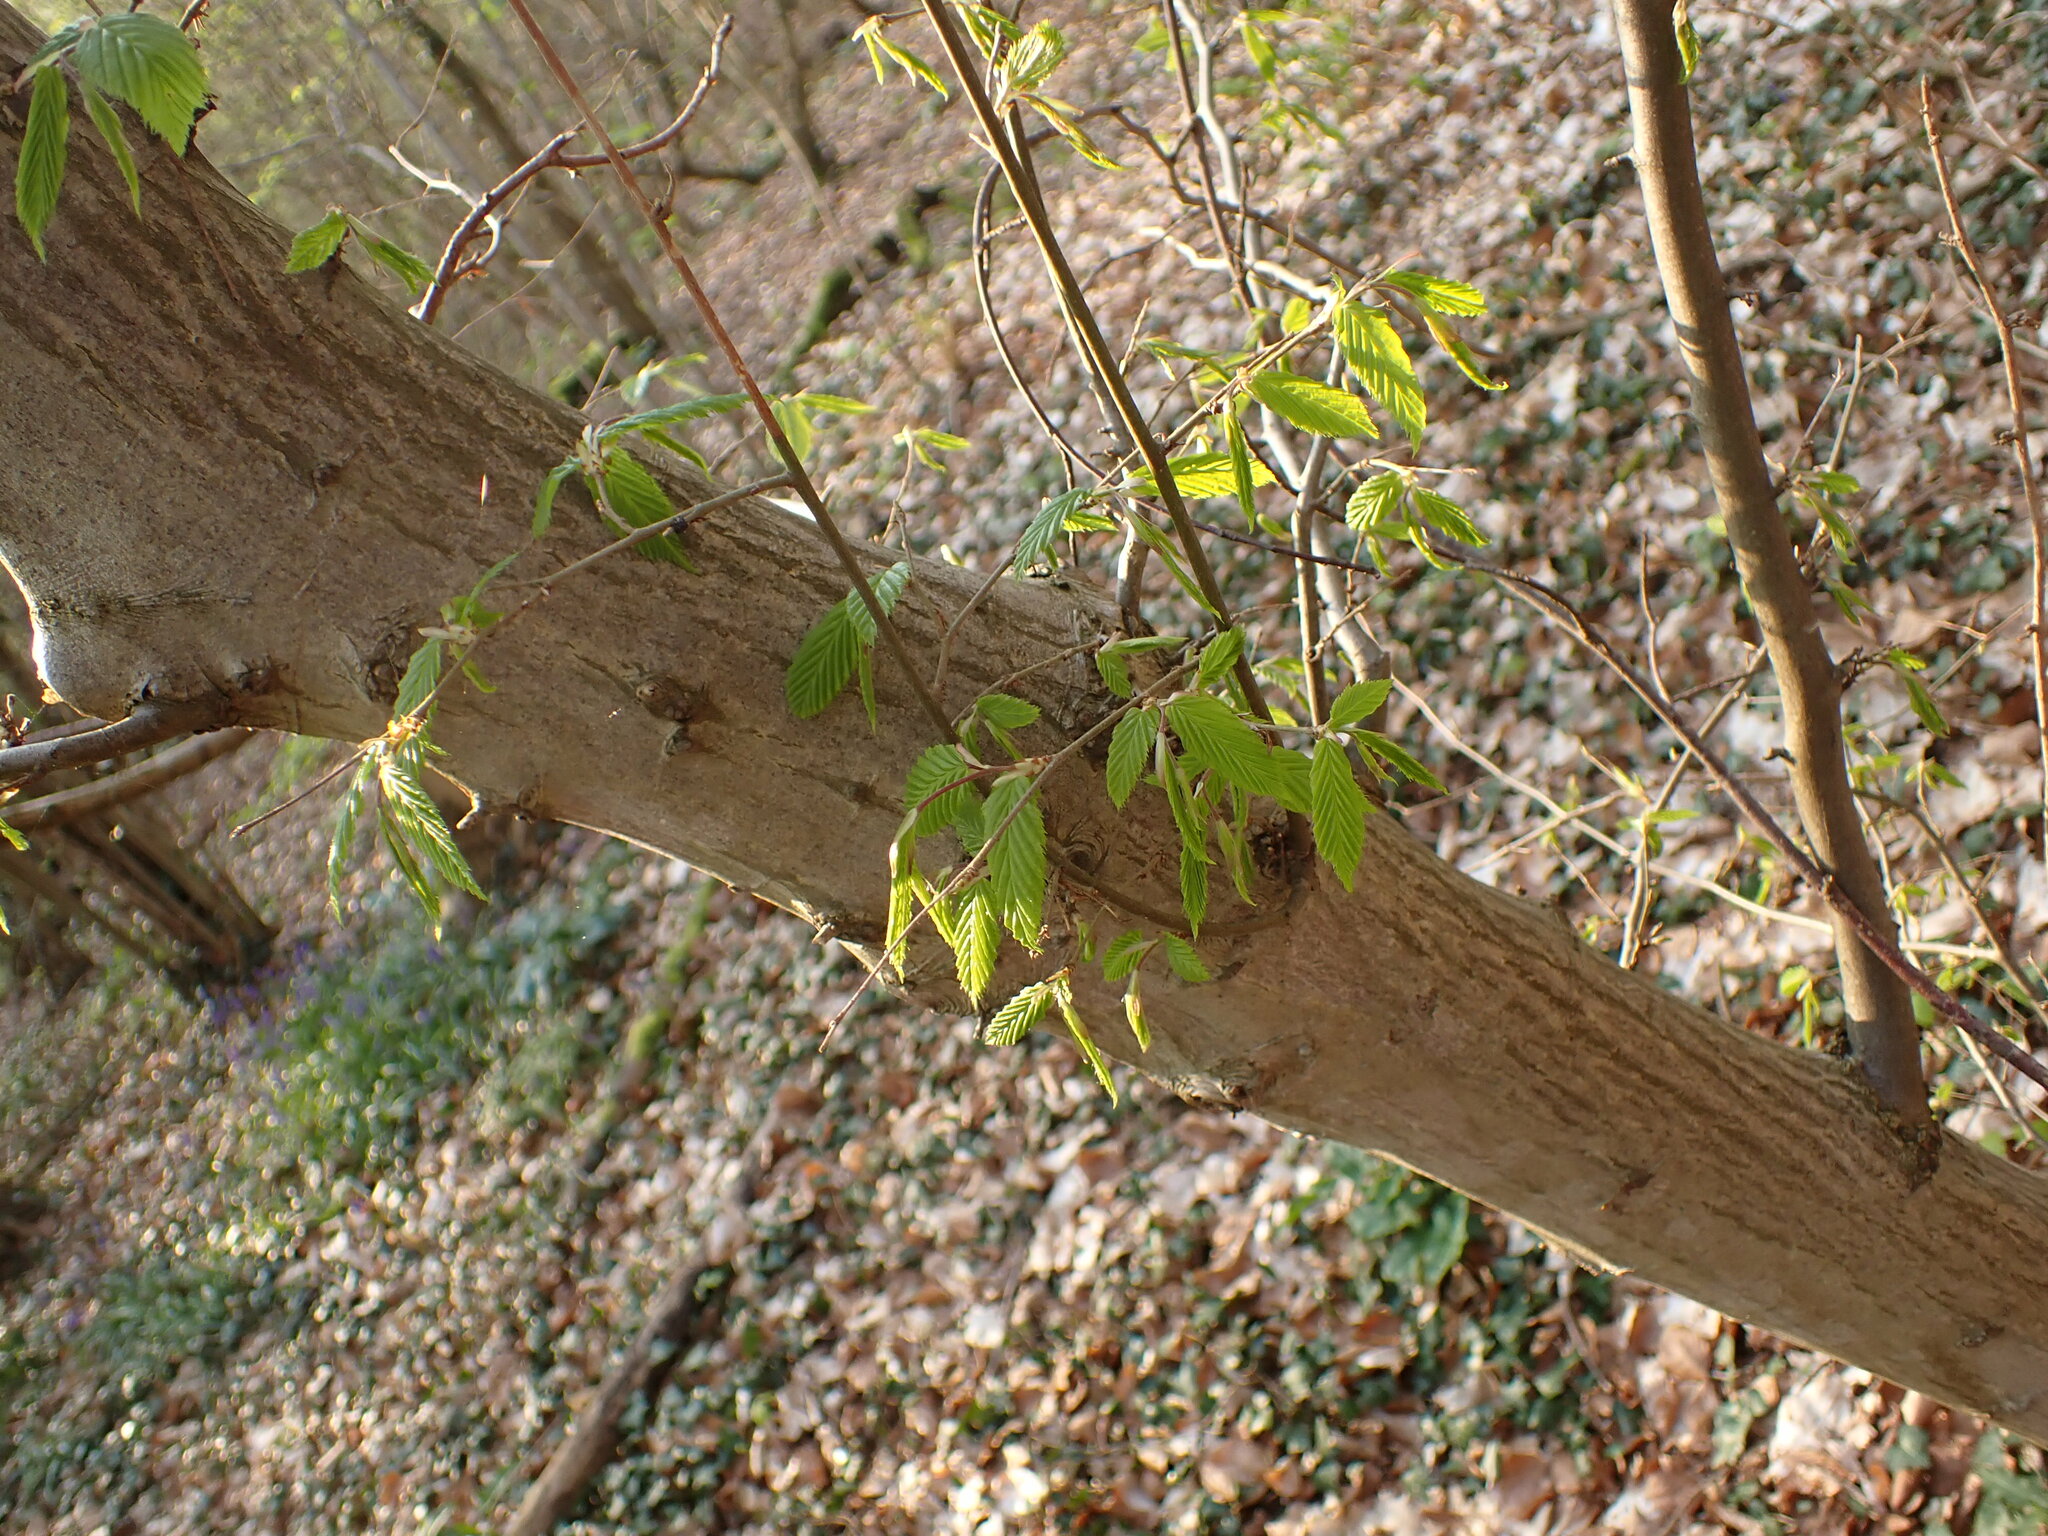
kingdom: Plantae
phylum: Tracheophyta
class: Magnoliopsida
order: Fagales
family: Betulaceae
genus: Carpinus
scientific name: Carpinus betulus
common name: Hornbeam
